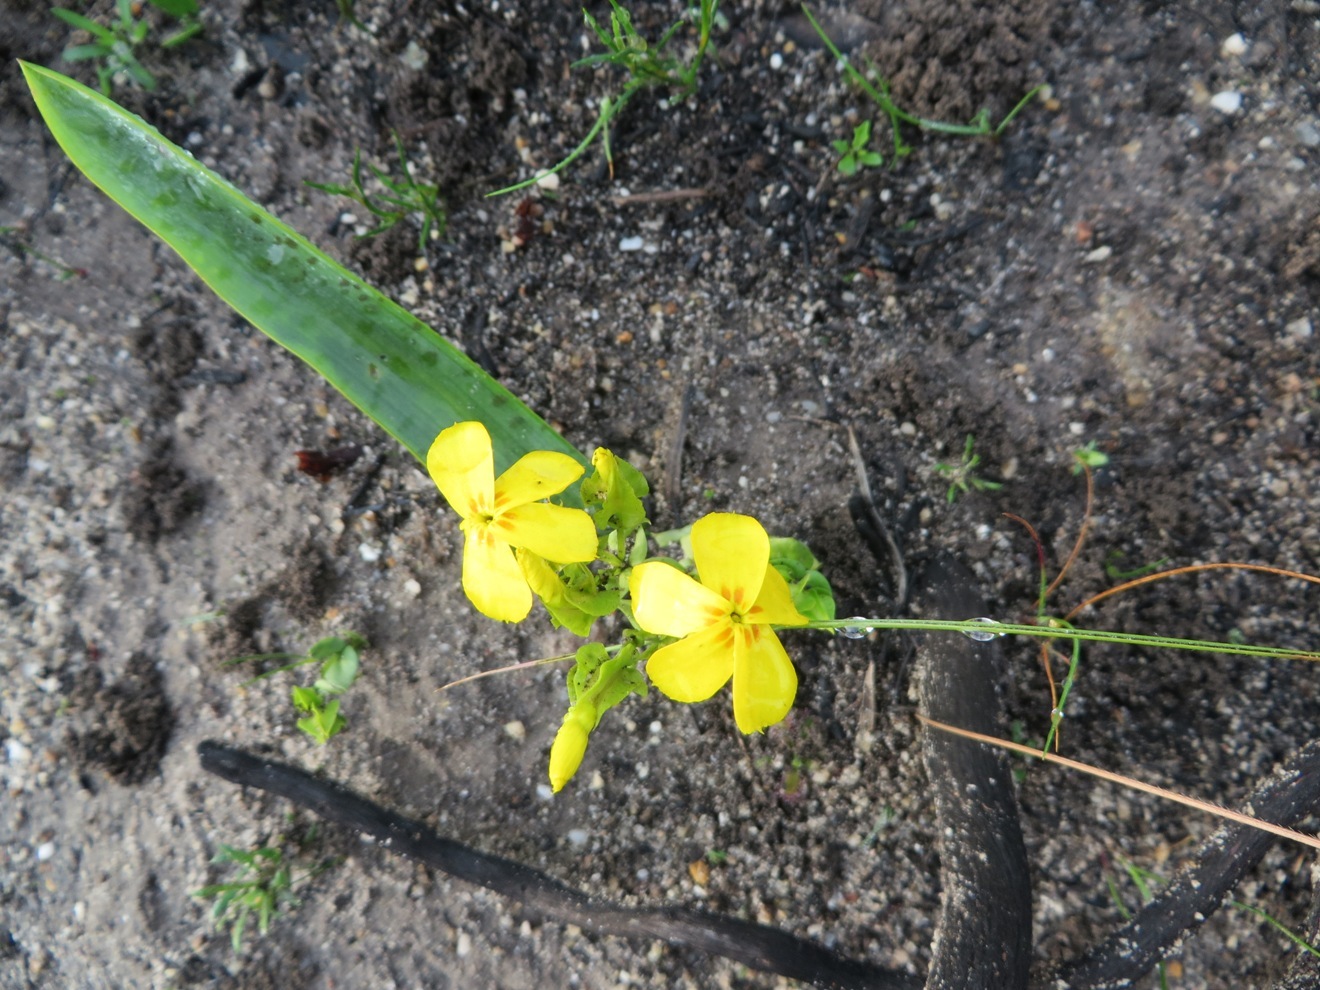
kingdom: Plantae
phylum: Tracheophyta
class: Magnoliopsida
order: Gentianales
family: Gentianaceae
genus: Sebaea
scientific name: Sebaea exacoides
